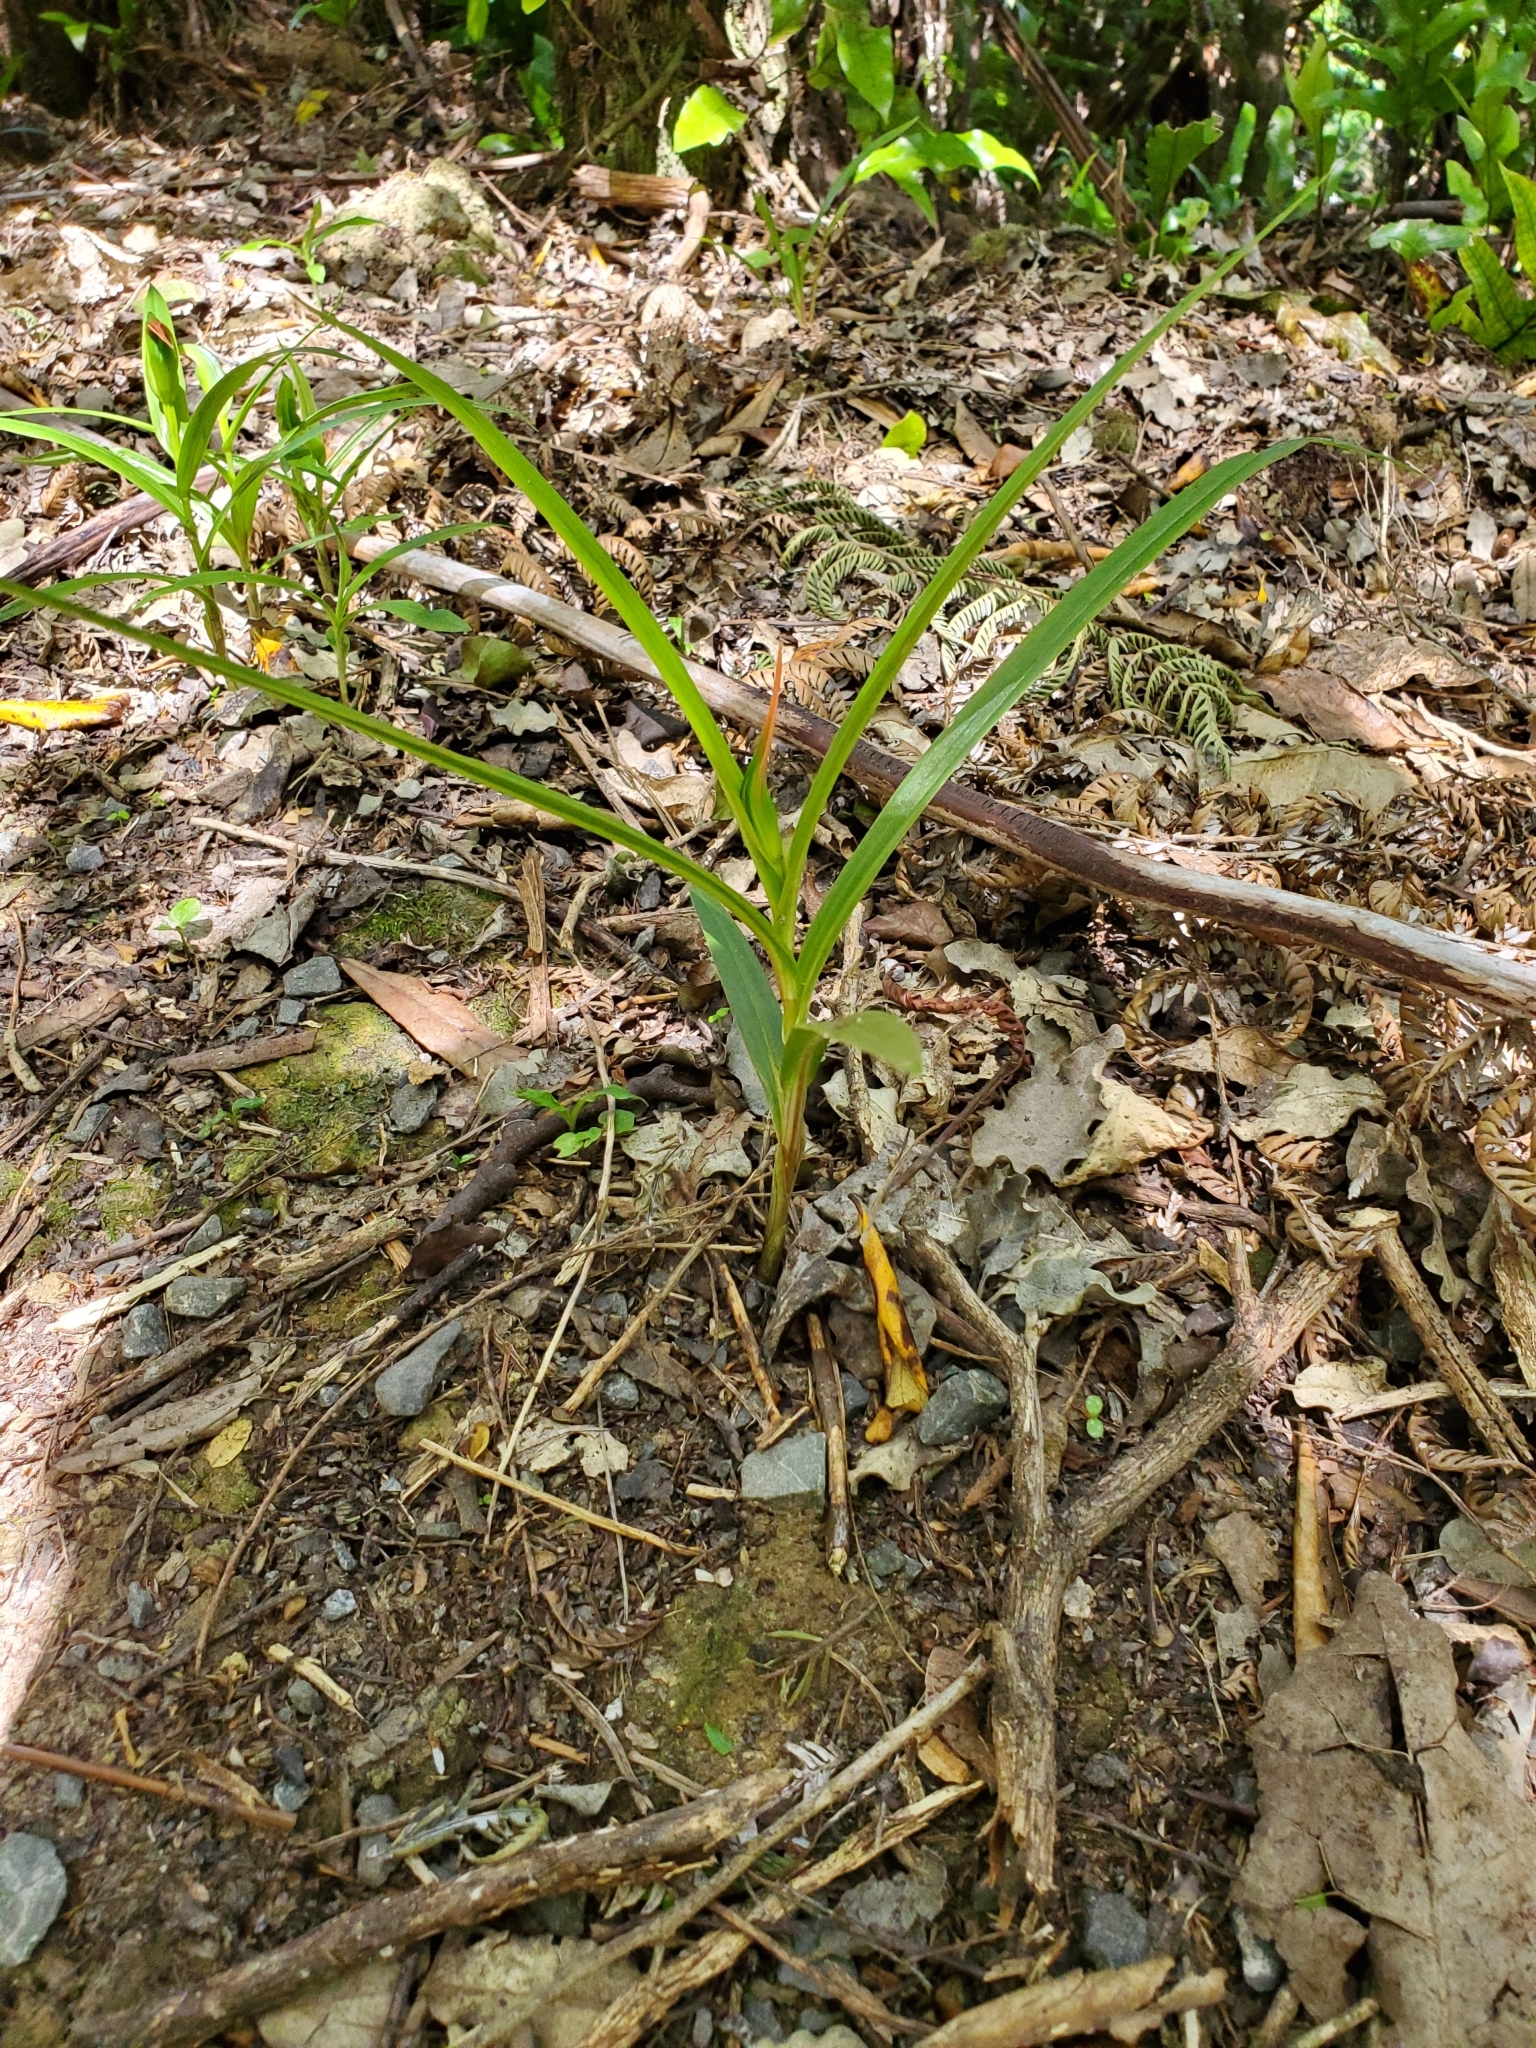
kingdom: Plantae
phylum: Tracheophyta
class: Liliopsida
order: Asparagales
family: Orchidaceae
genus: Pterostylis
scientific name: Pterostylis cardiostigma
